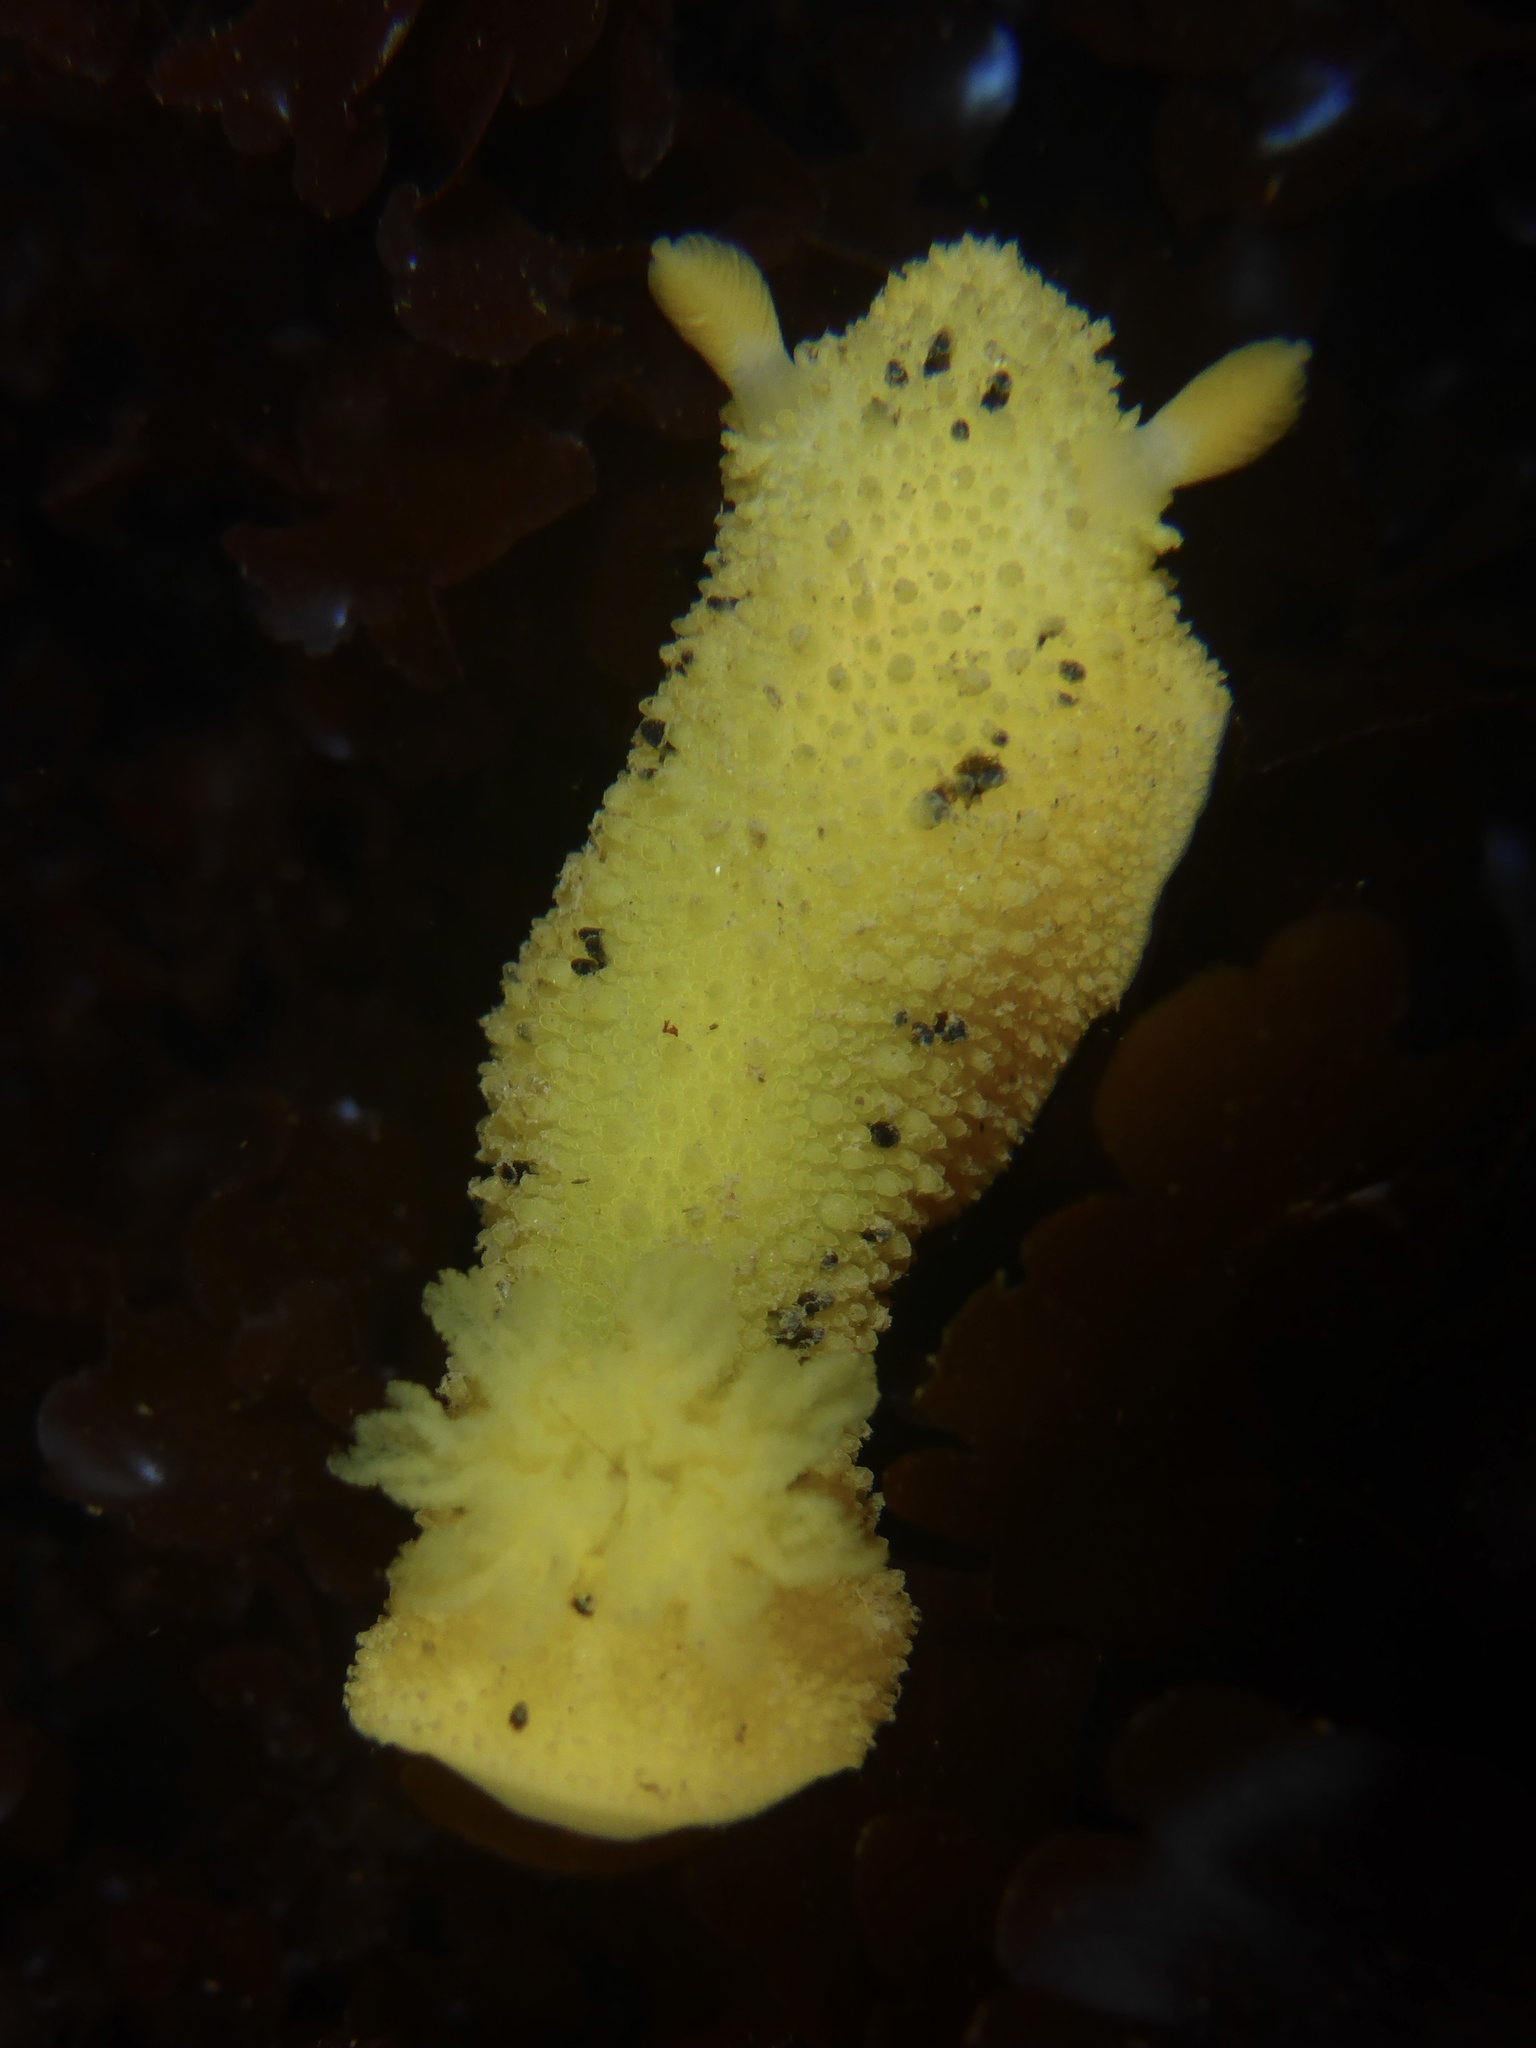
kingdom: Animalia
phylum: Mollusca
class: Gastropoda
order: Nudibranchia
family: Dorididae
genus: Doris
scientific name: Doris montereyensis
